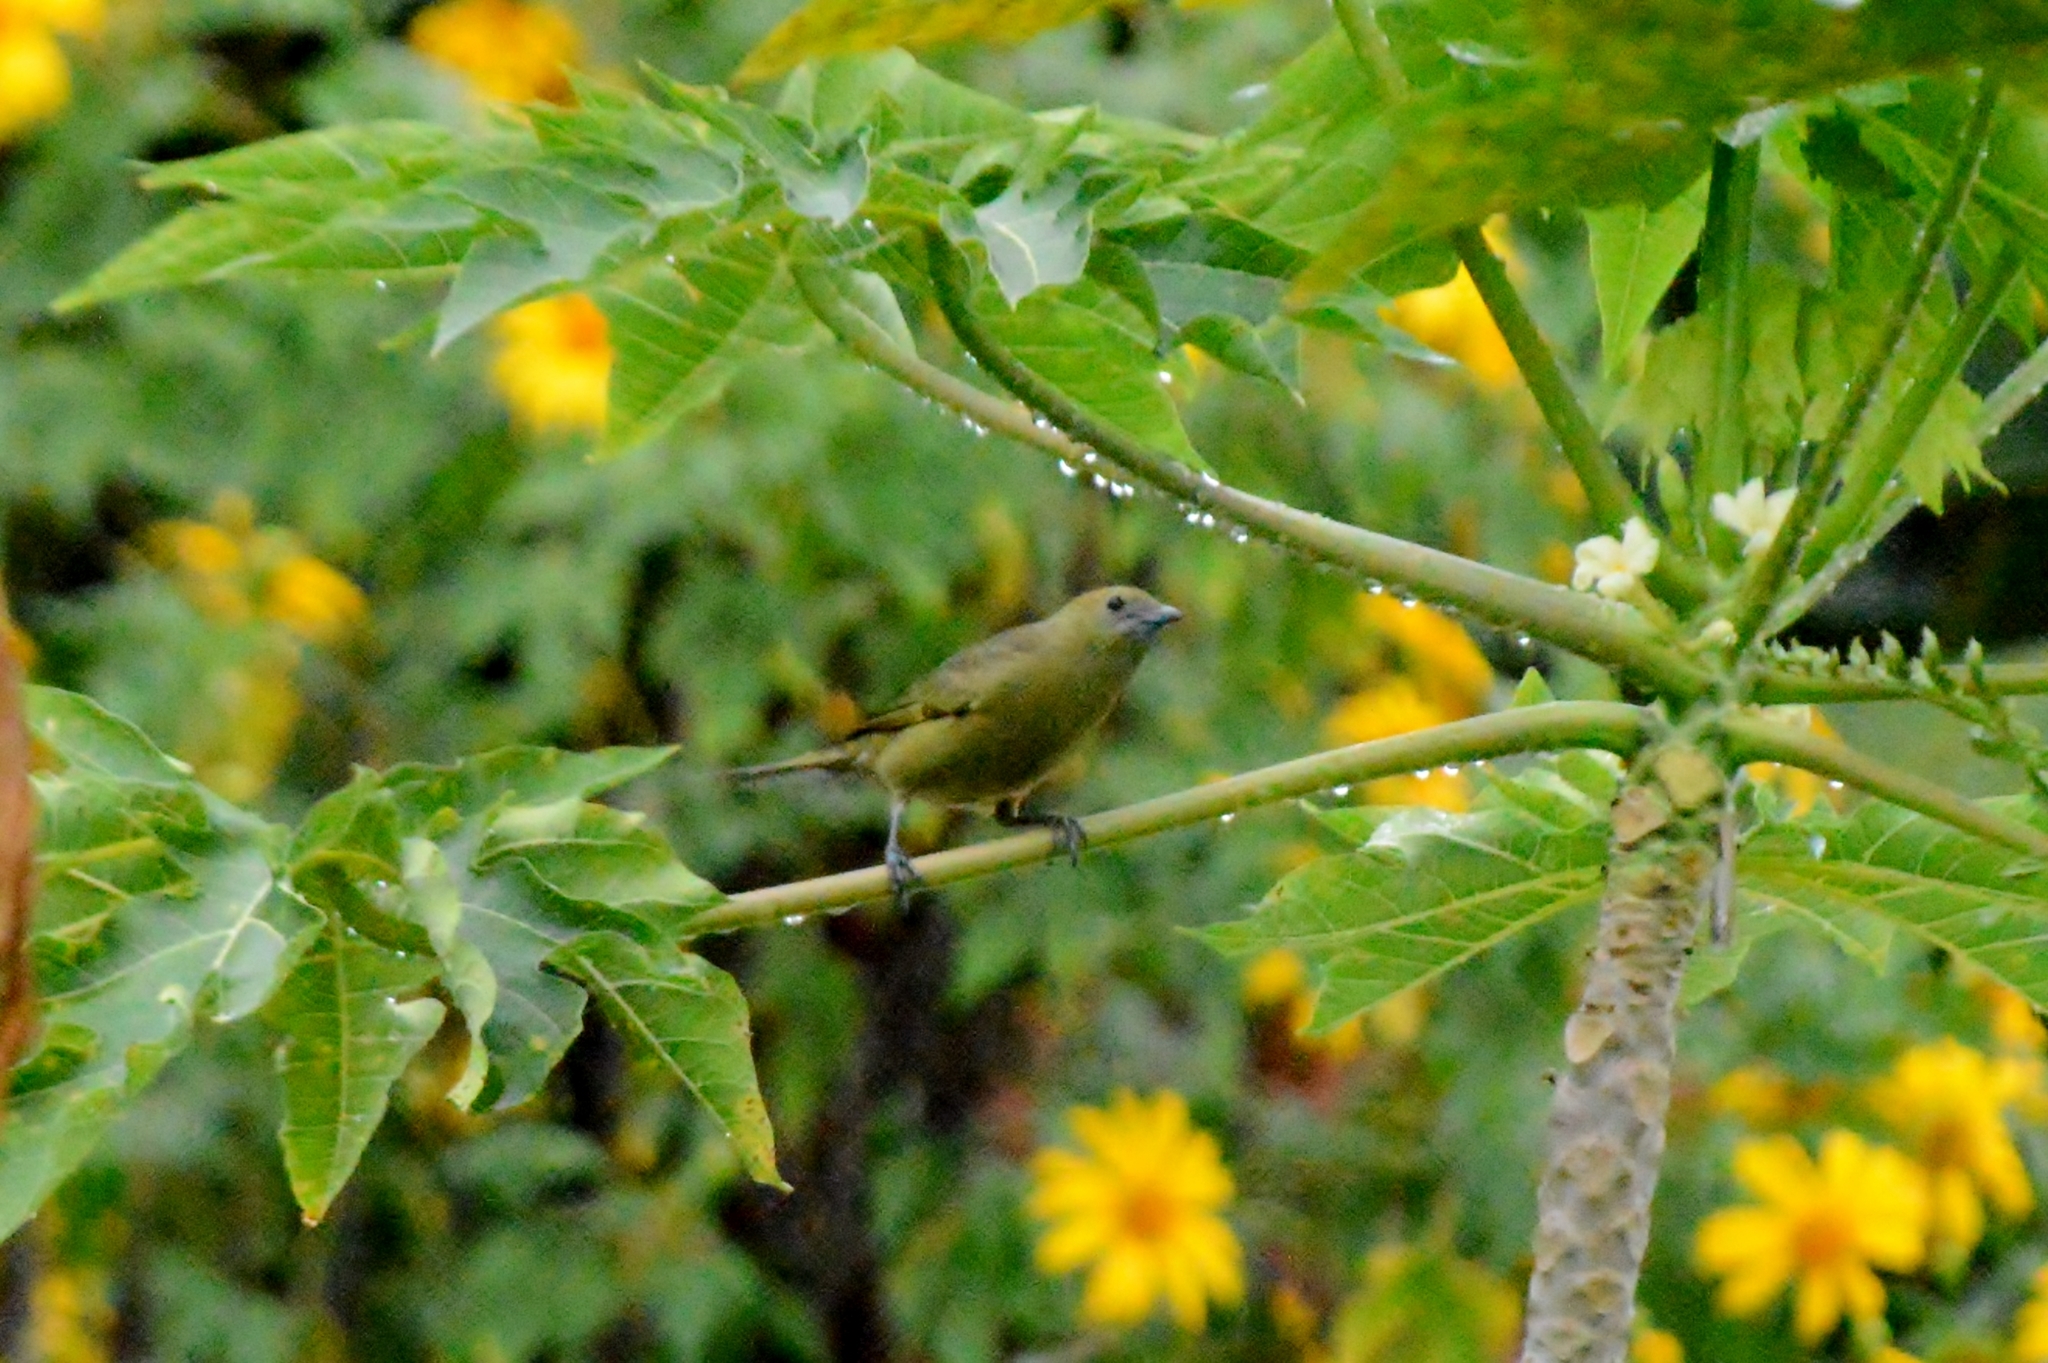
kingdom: Animalia
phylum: Chordata
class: Aves
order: Passeriformes
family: Thraupidae
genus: Thraupis
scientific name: Thraupis palmarum
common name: Palm tanager
